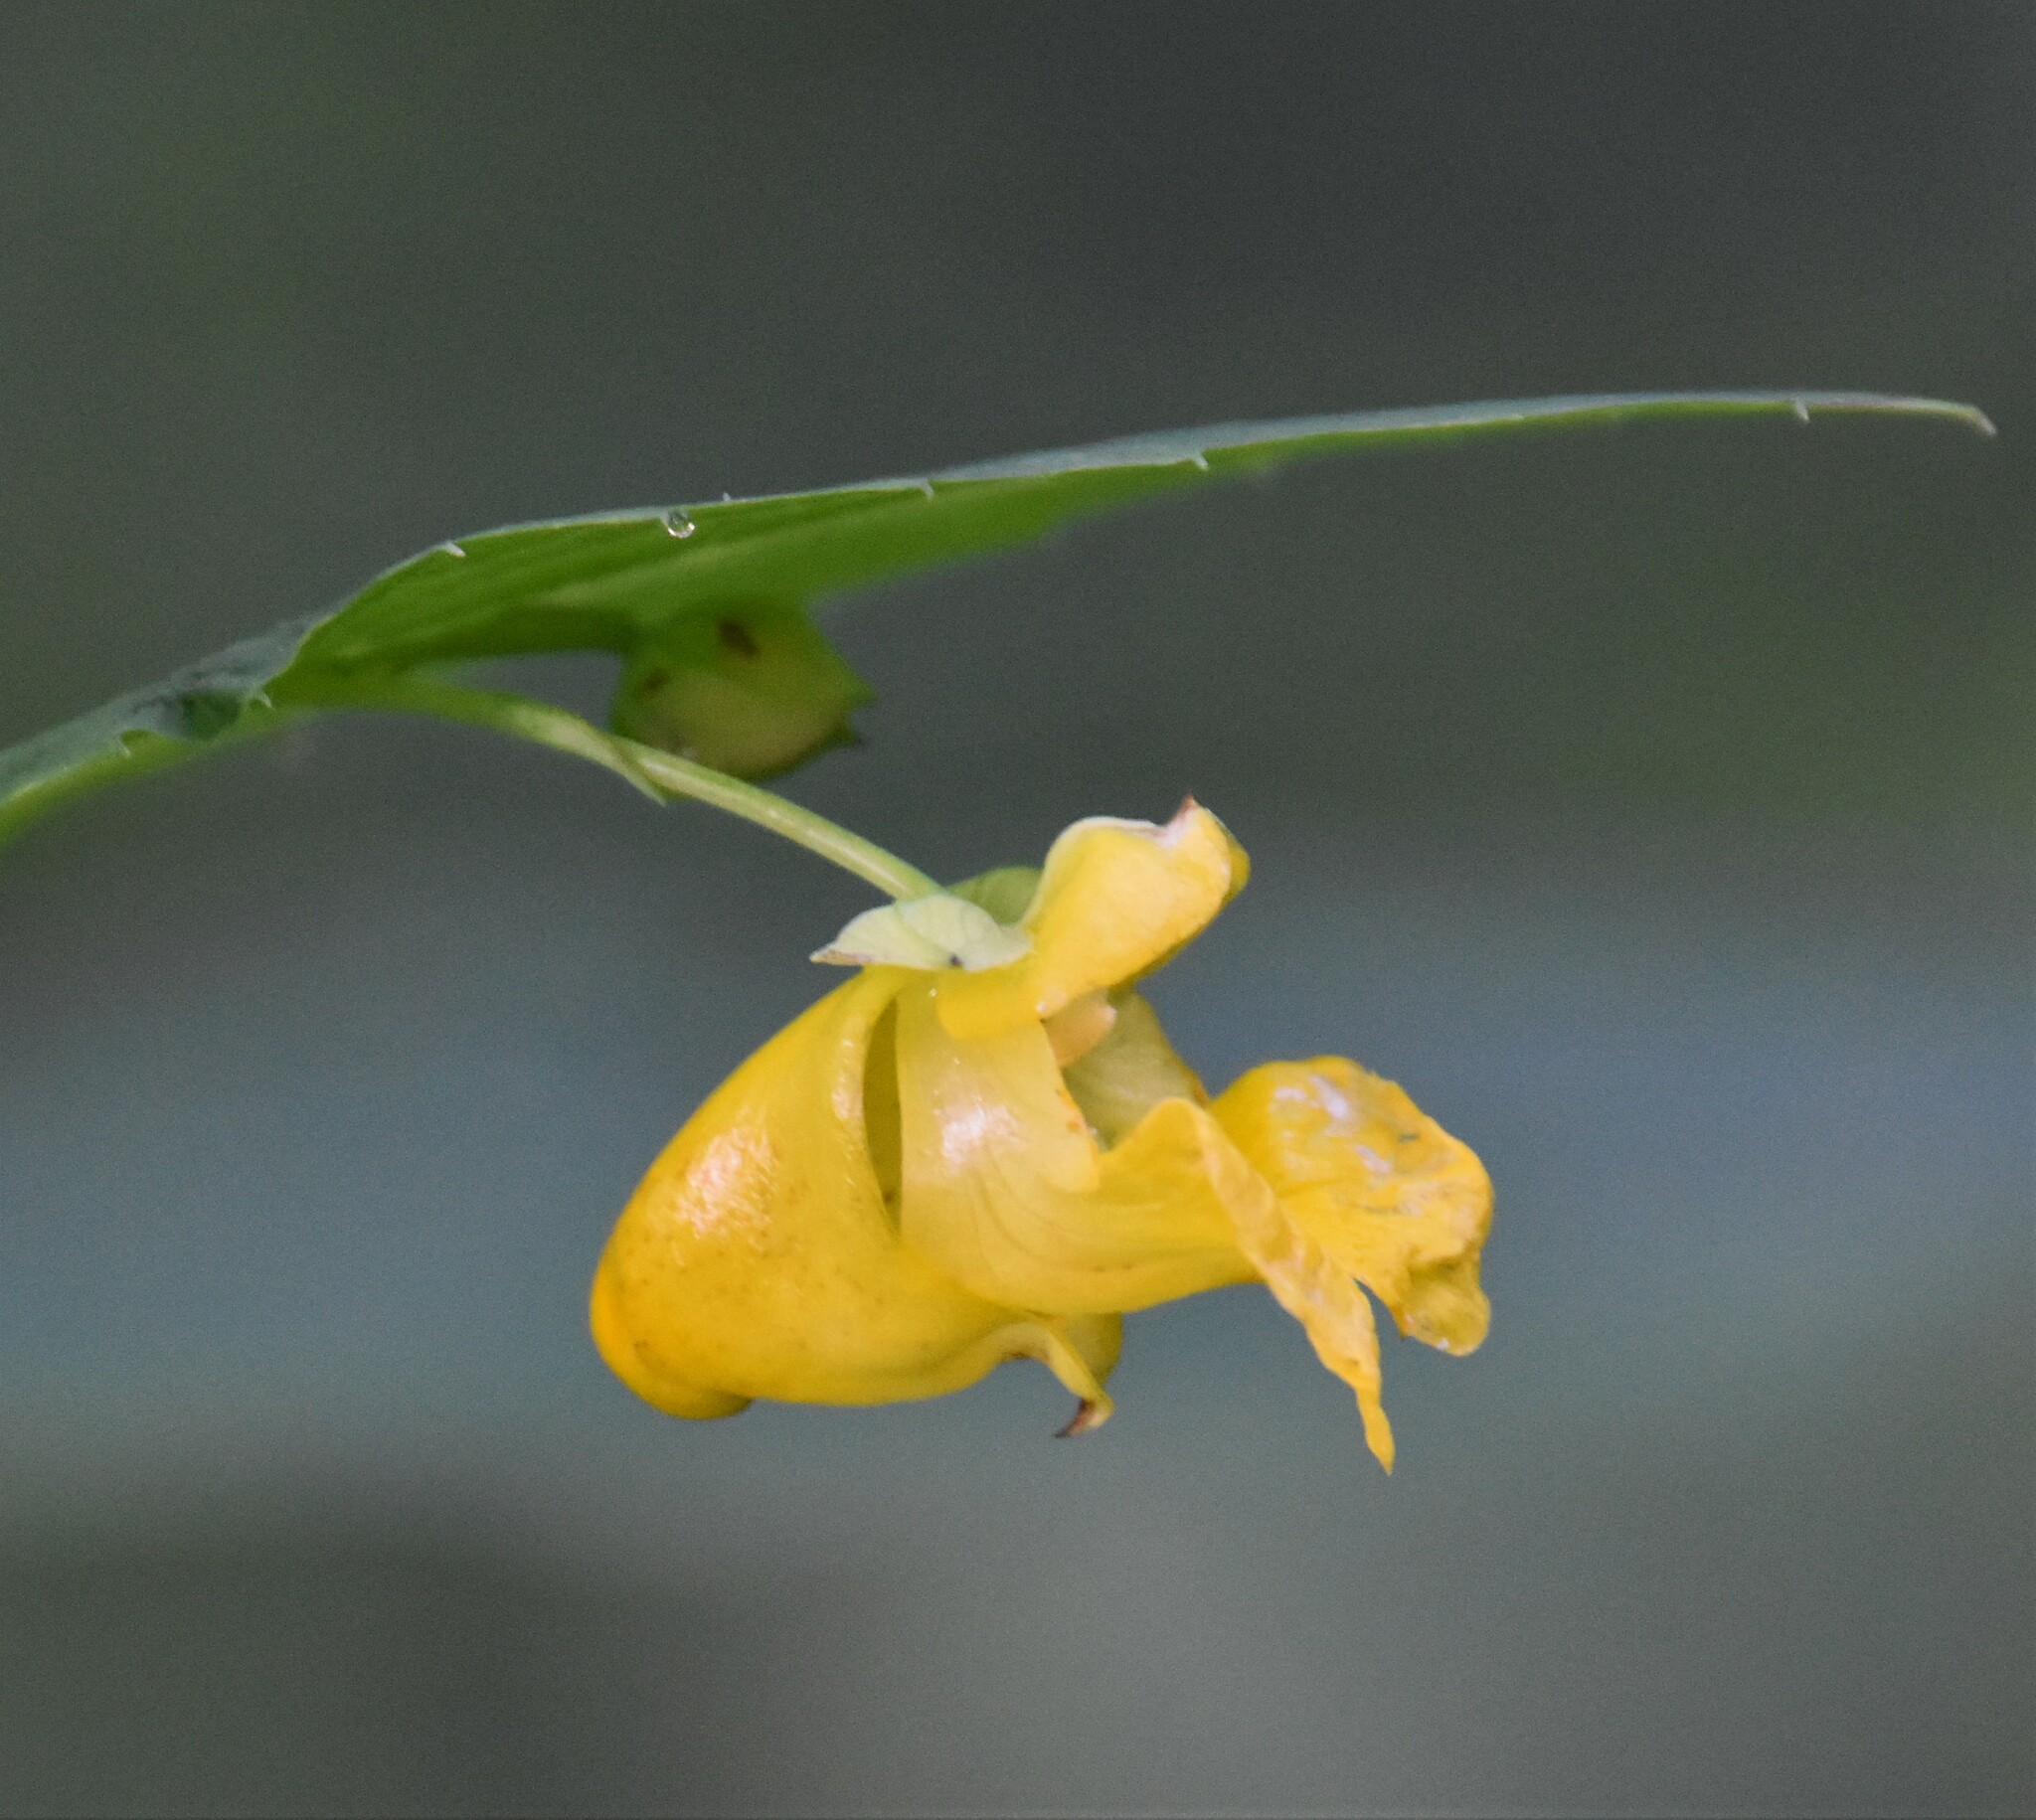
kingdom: Plantae
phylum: Tracheophyta
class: Magnoliopsida
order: Ericales
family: Balsaminaceae
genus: Impatiens
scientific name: Impatiens pallida
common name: Pale snapweed
